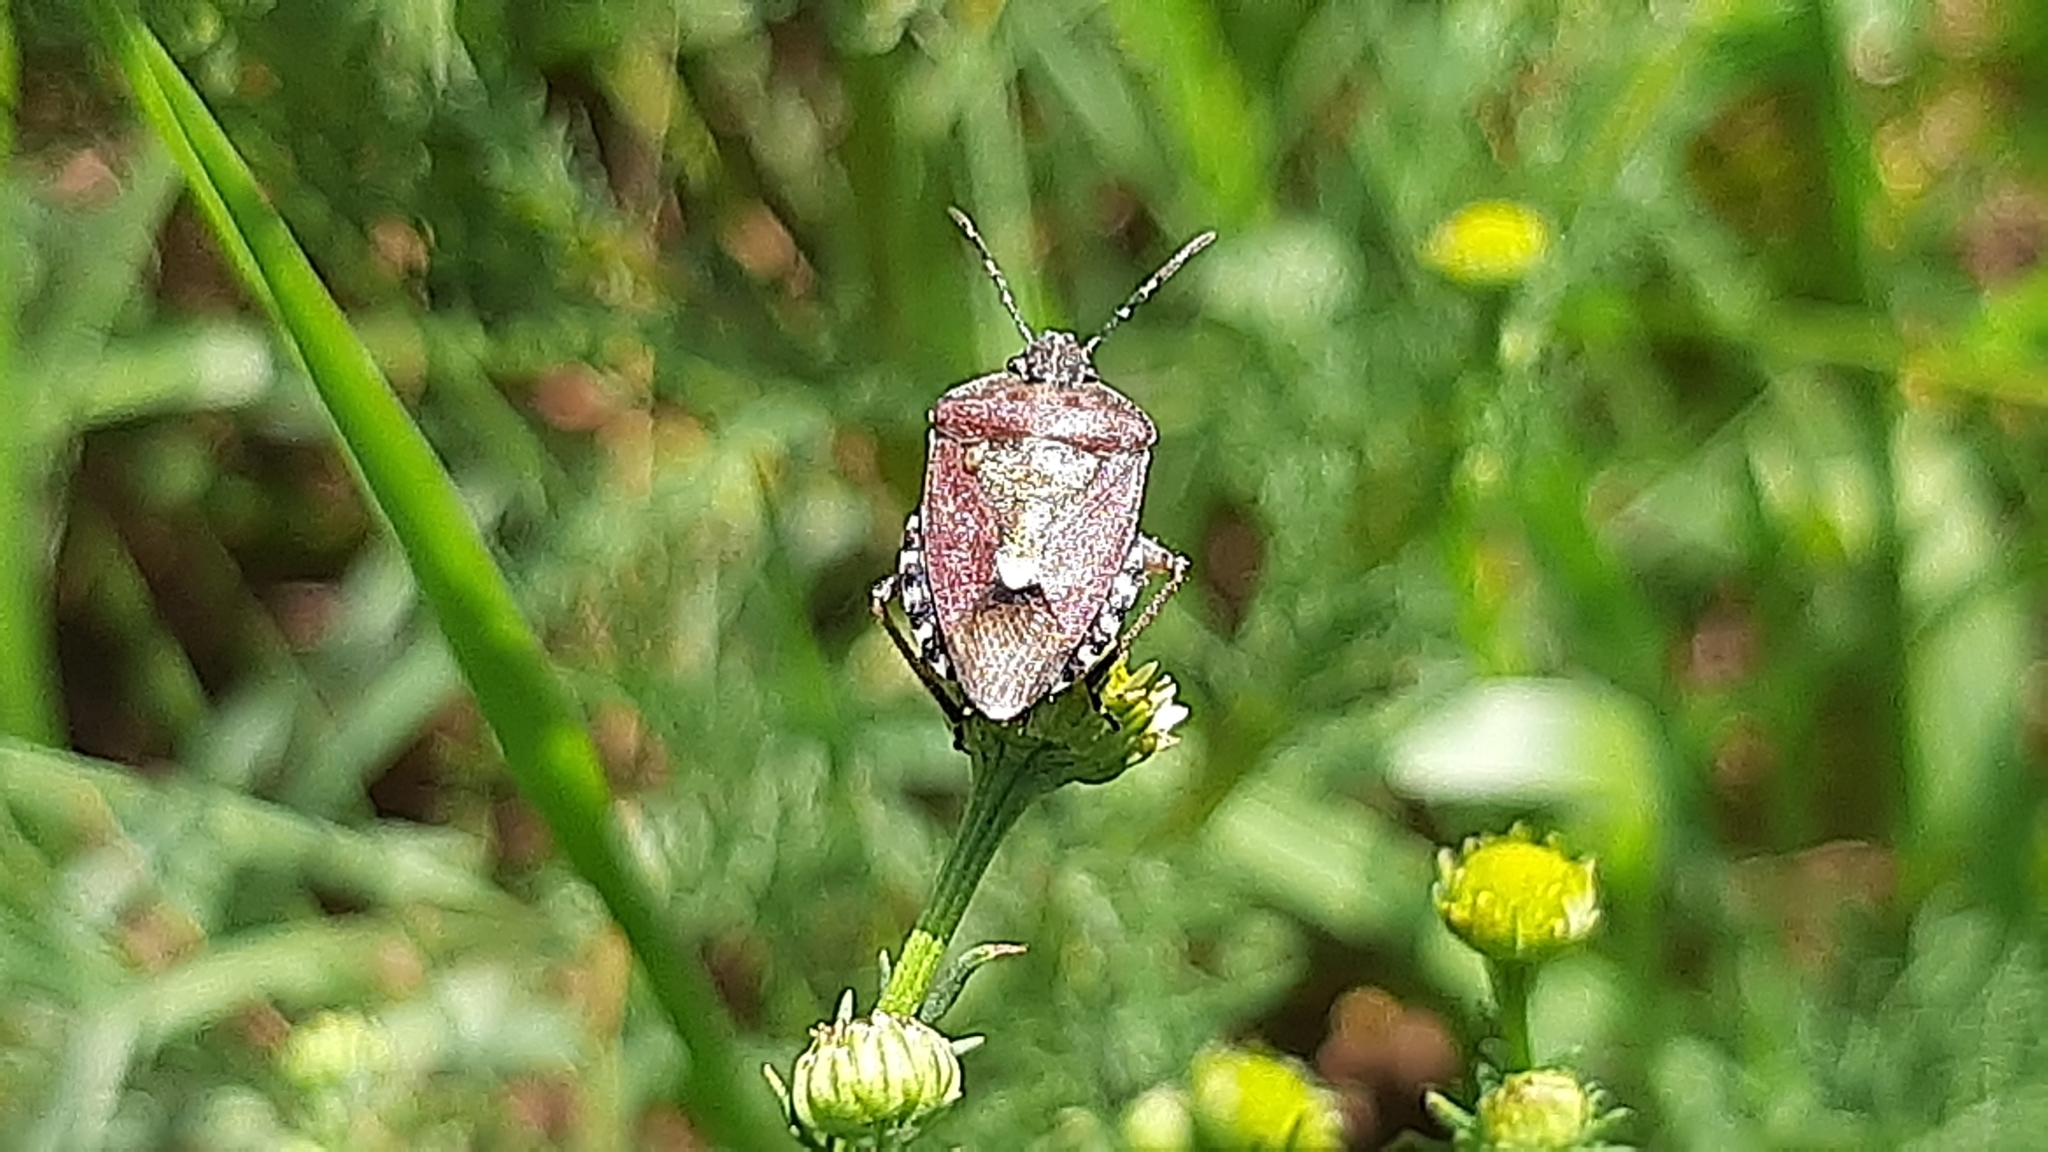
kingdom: Animalia
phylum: Arthropoda
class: Insecta
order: Hemiptera
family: Pentatomidae
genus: Dolycoris
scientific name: Dolycoris baccarum
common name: Sloe bug
